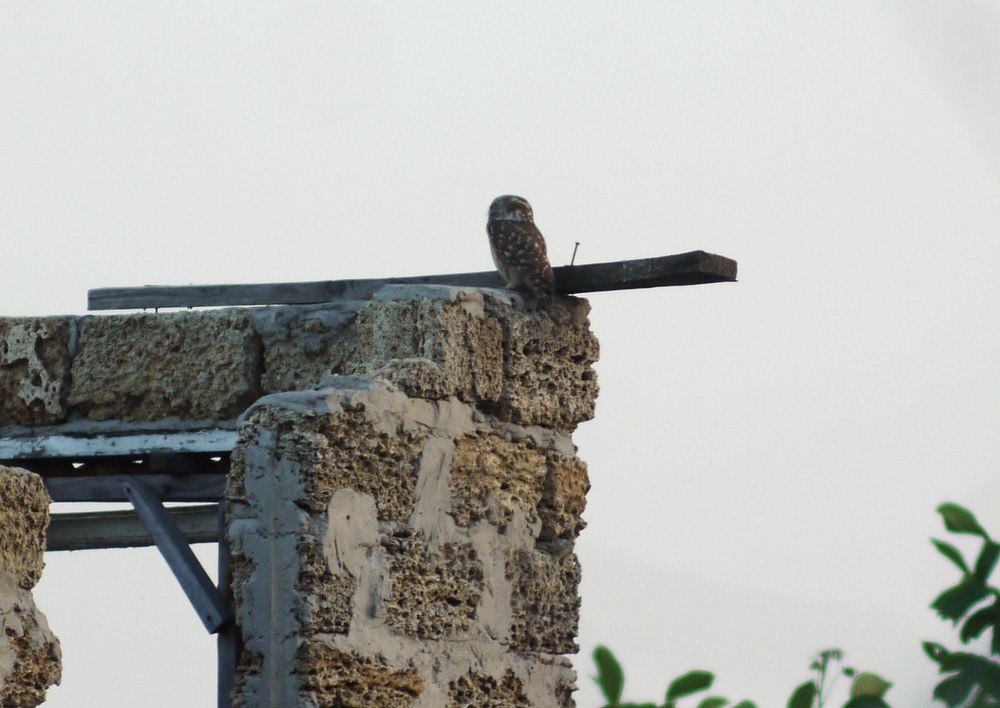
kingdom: Animalia
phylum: Chordata
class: Aves
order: Strigiformes
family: Strigidae
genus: Athene
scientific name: Athene noctua
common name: Little owl
